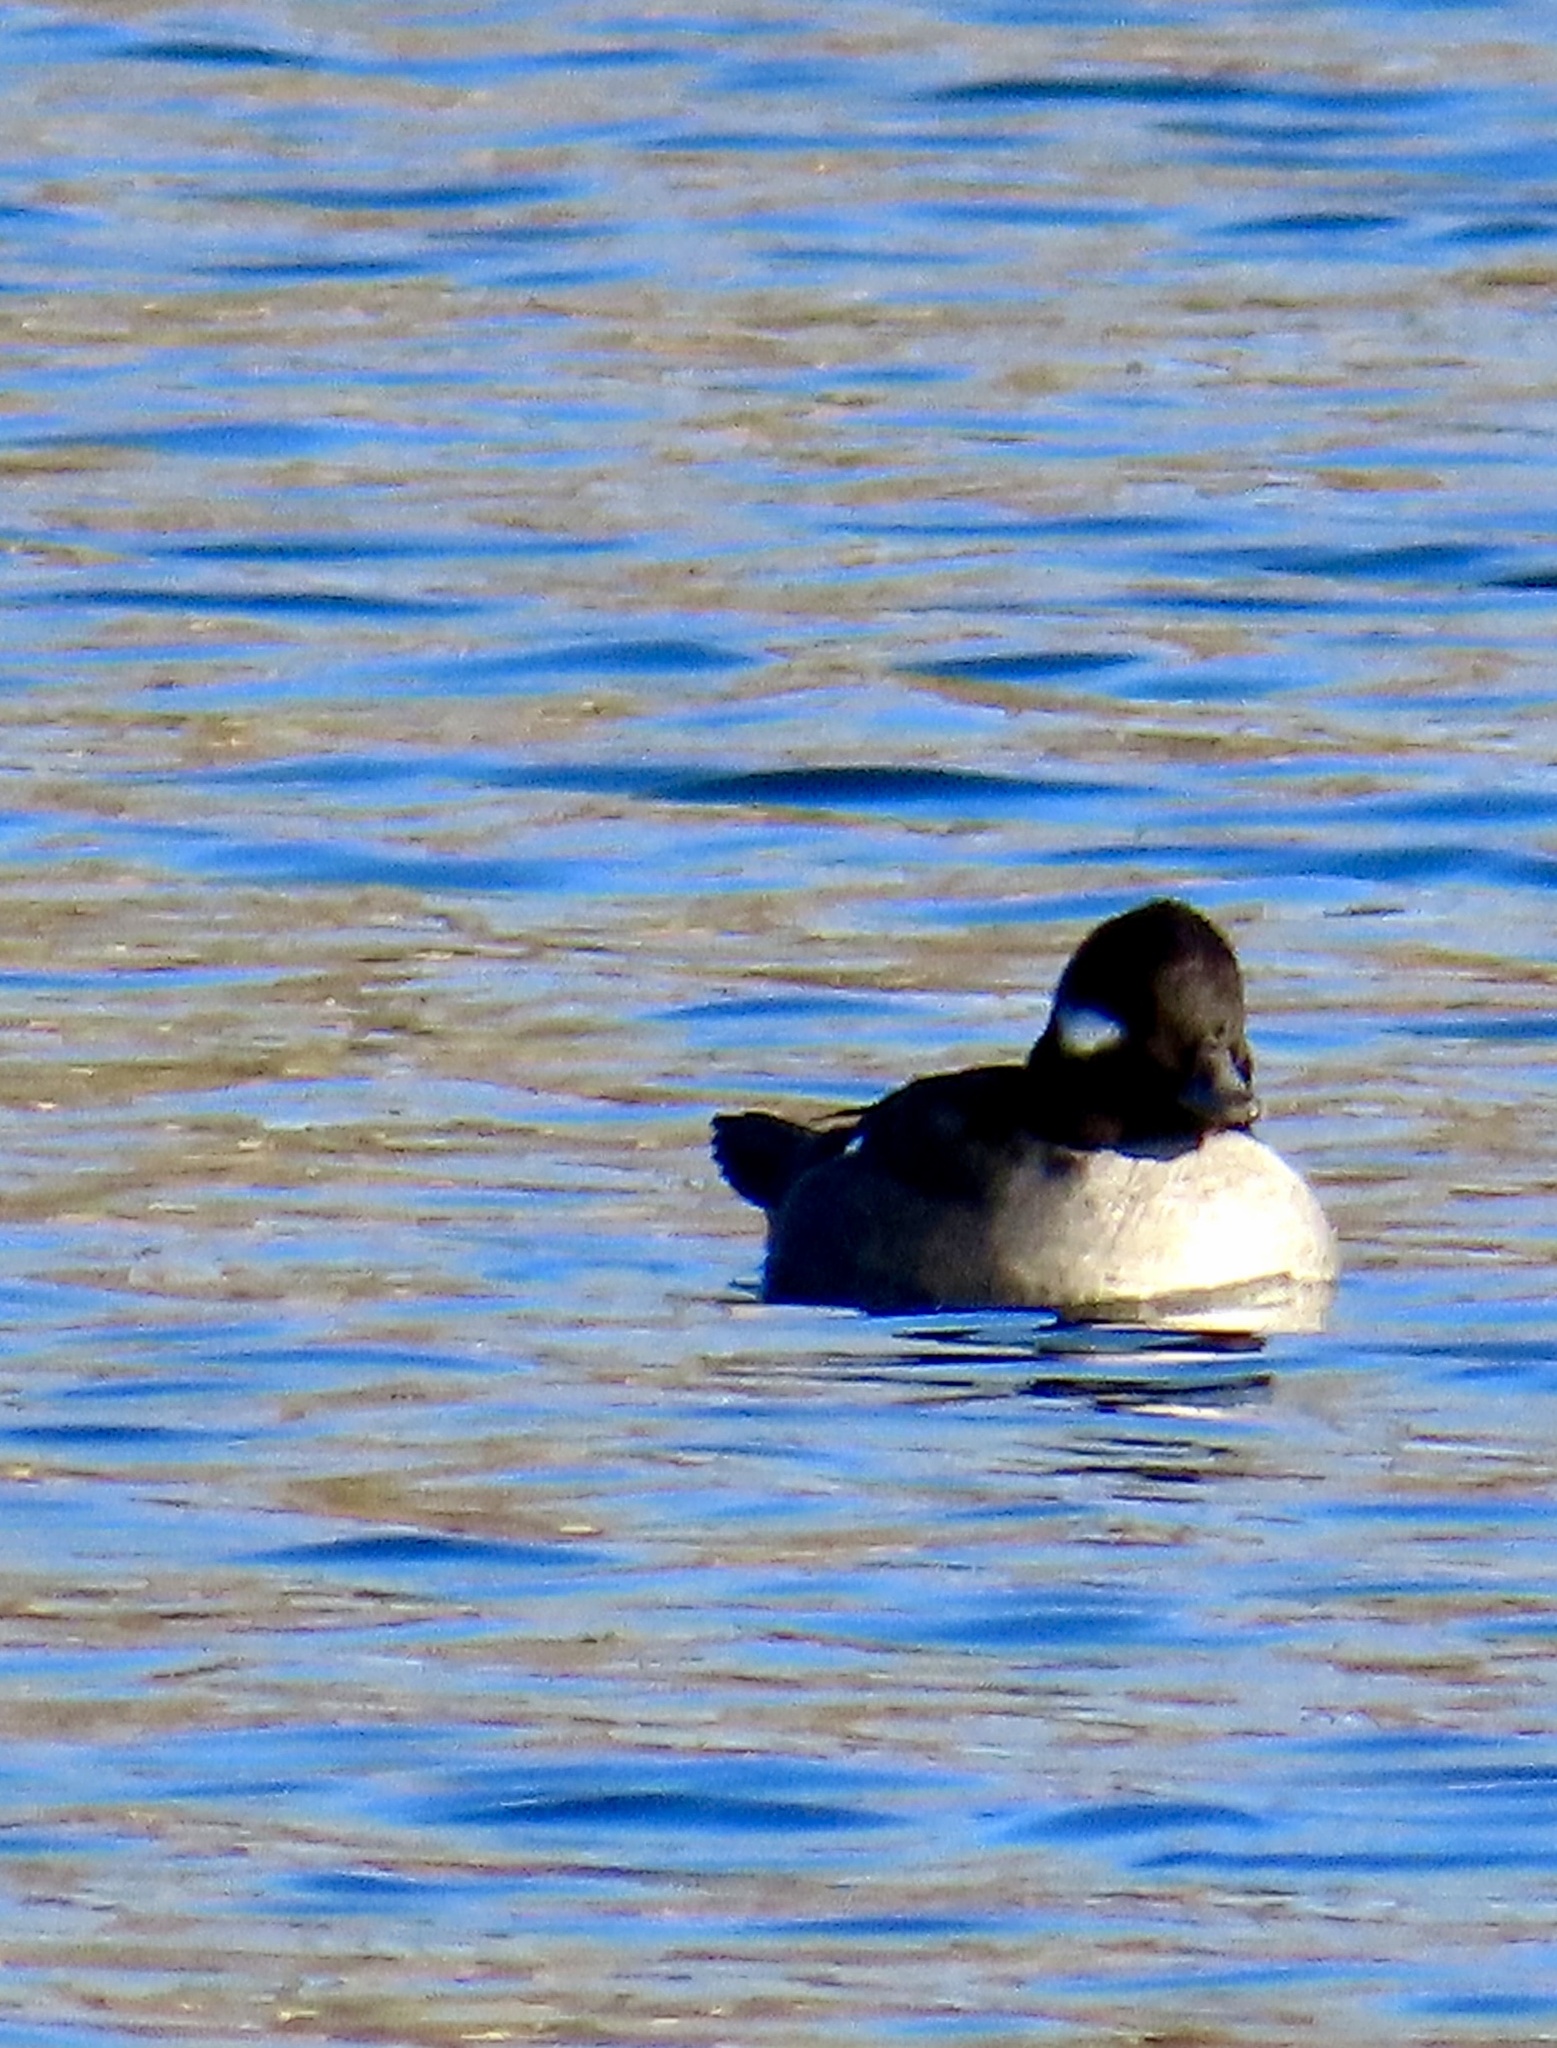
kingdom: Animalia
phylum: Chordata
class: Aves
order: Anseriformes
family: Anatidae
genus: Bucephala
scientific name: Bucephala albeola
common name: Bufflehead
